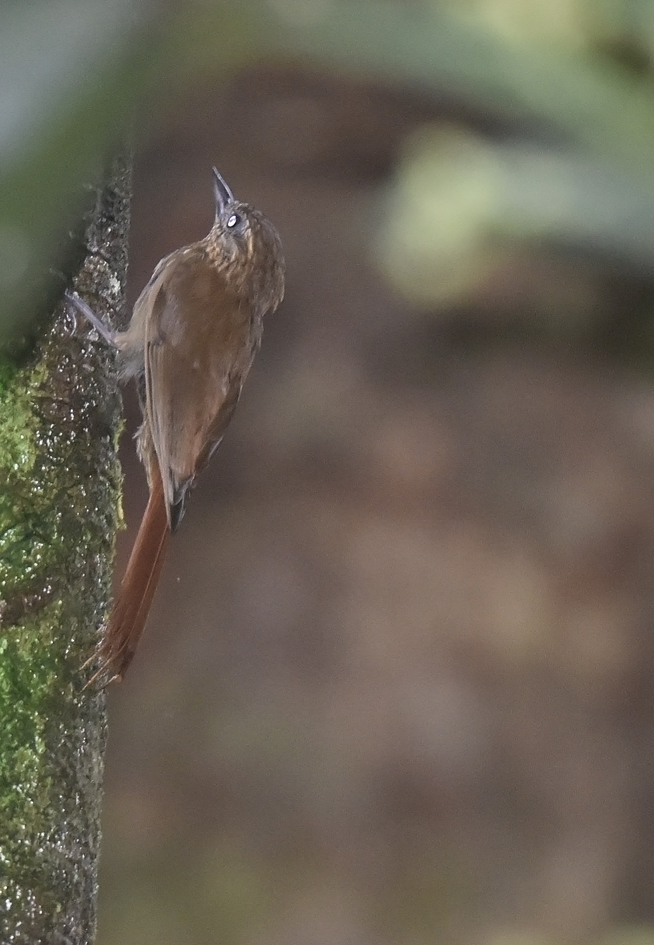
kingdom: Animalia
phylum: Chordata
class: Aves
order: Passeriformes
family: Furnariidae
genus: Glyphorynchus
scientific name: Glyphorynchus spirurus
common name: Wedge-billed woodcreeper
